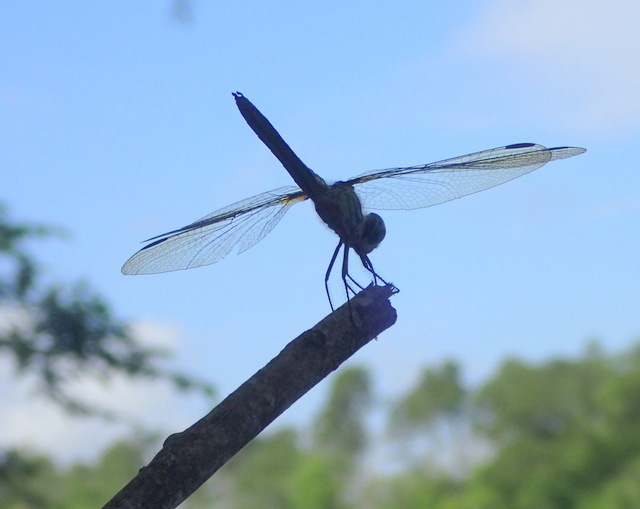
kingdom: Animalia
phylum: Arthropoda
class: Insecta
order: Odonata
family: Libellulidae
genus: Pachydiplax
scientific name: Pachydiplax longipennis
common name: Blue dasher
